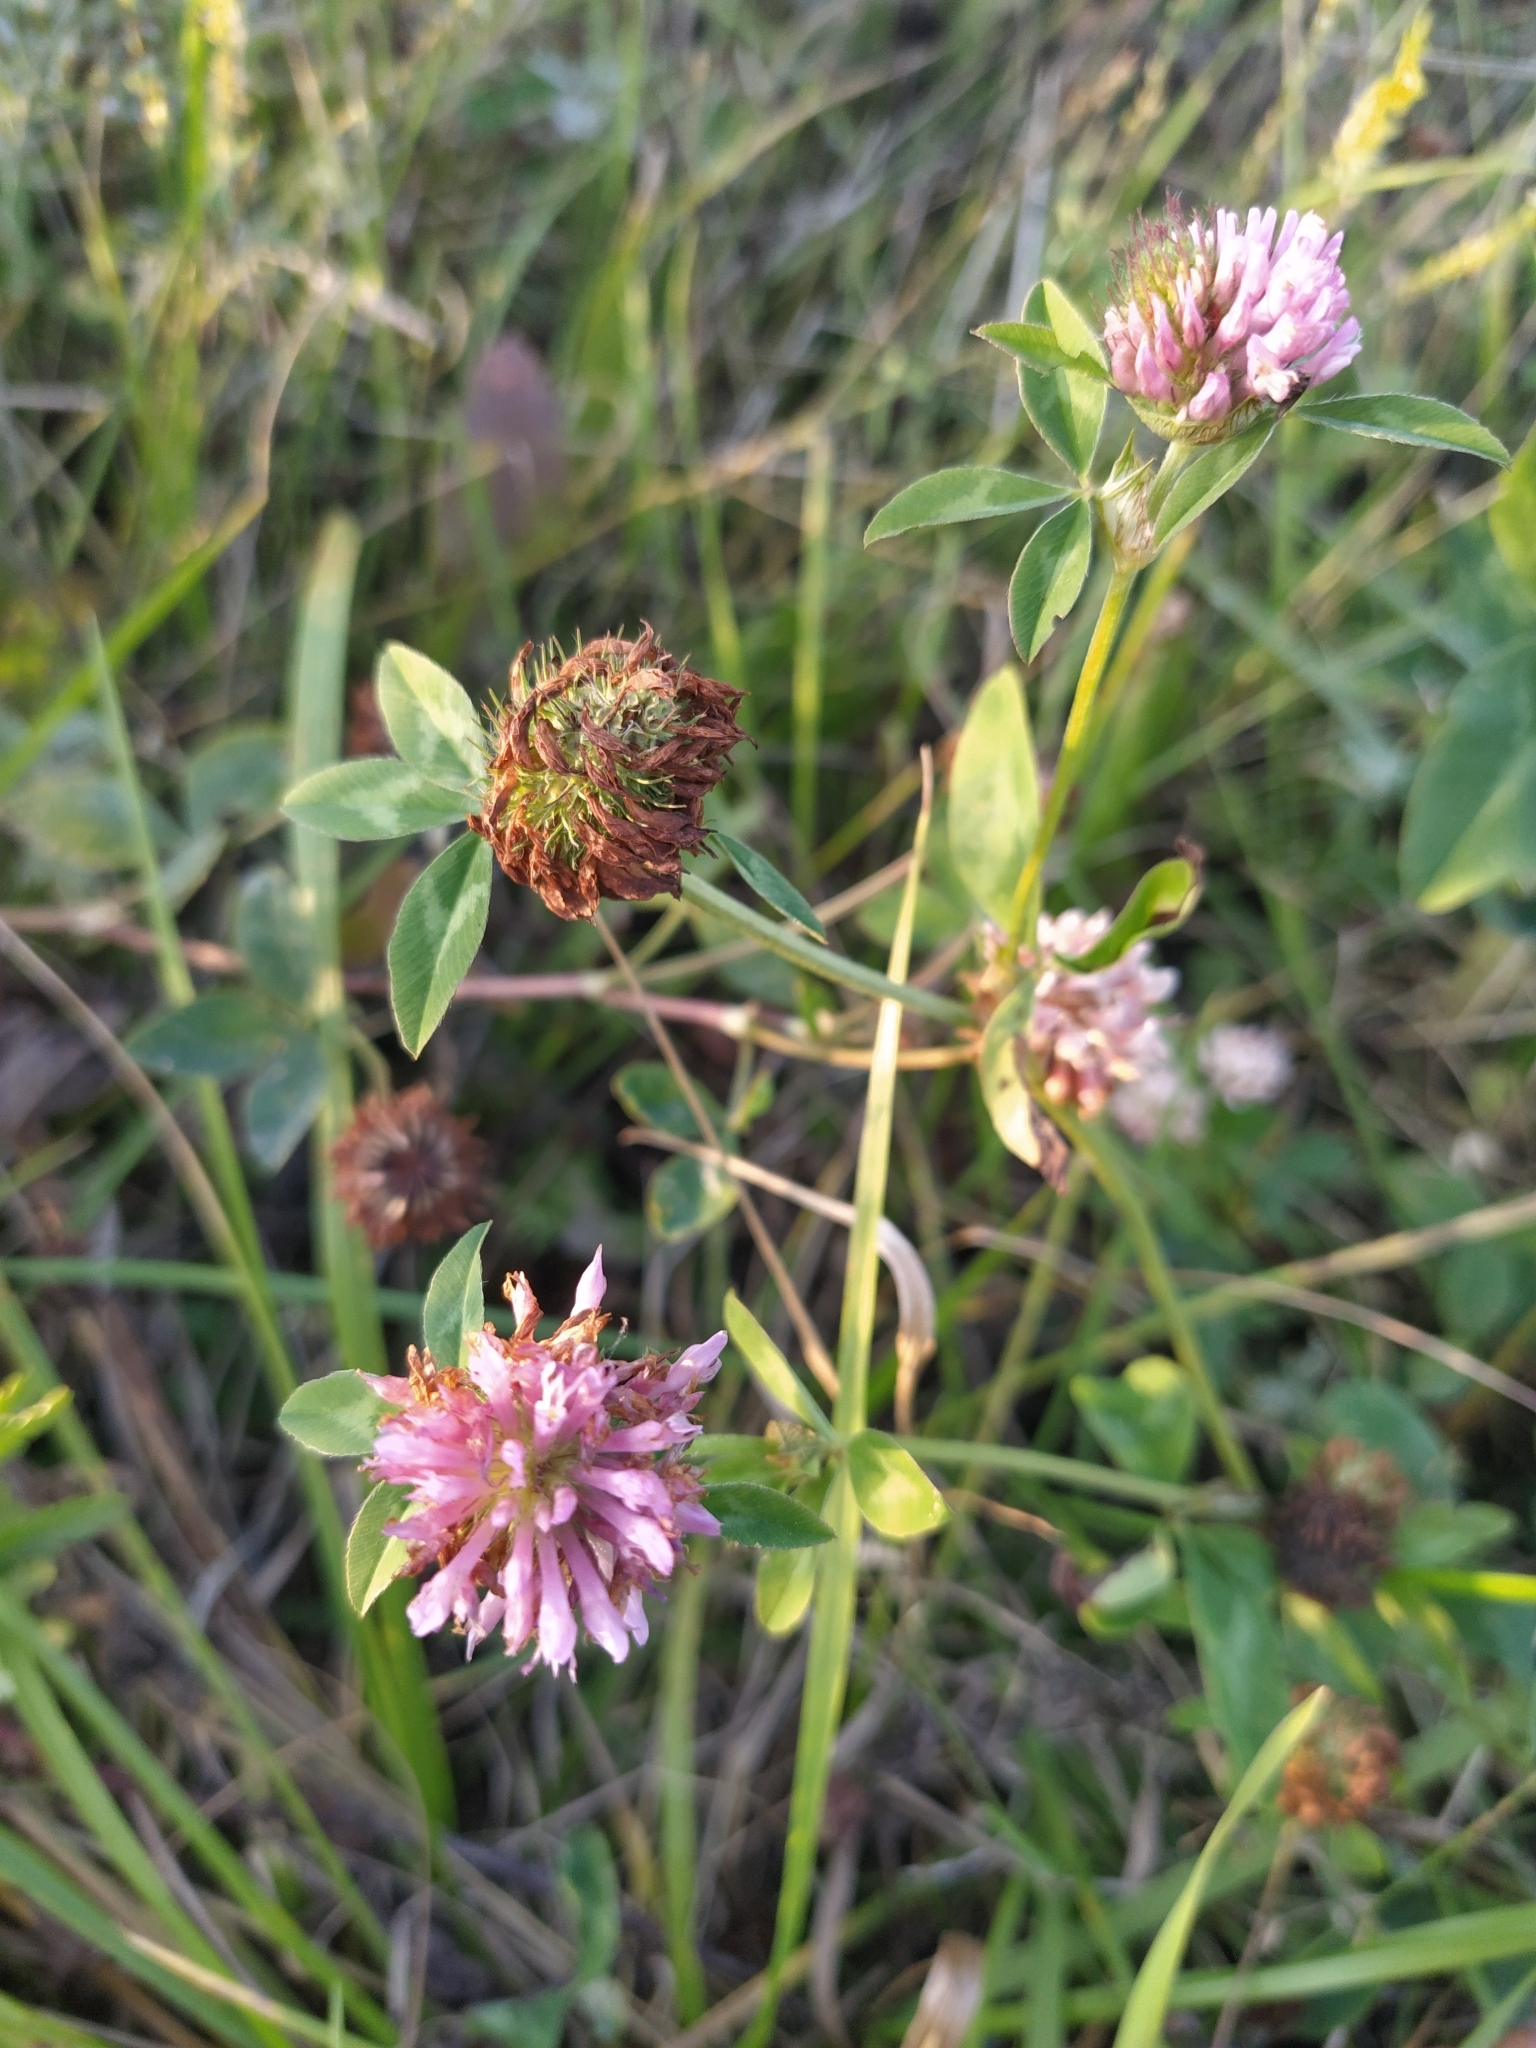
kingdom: Plantae
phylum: Tracheophyta
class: Magnoliopsida
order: Fabales
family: Fabaceae
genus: Trifolium
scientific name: Trifolium pratense
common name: Red clover
